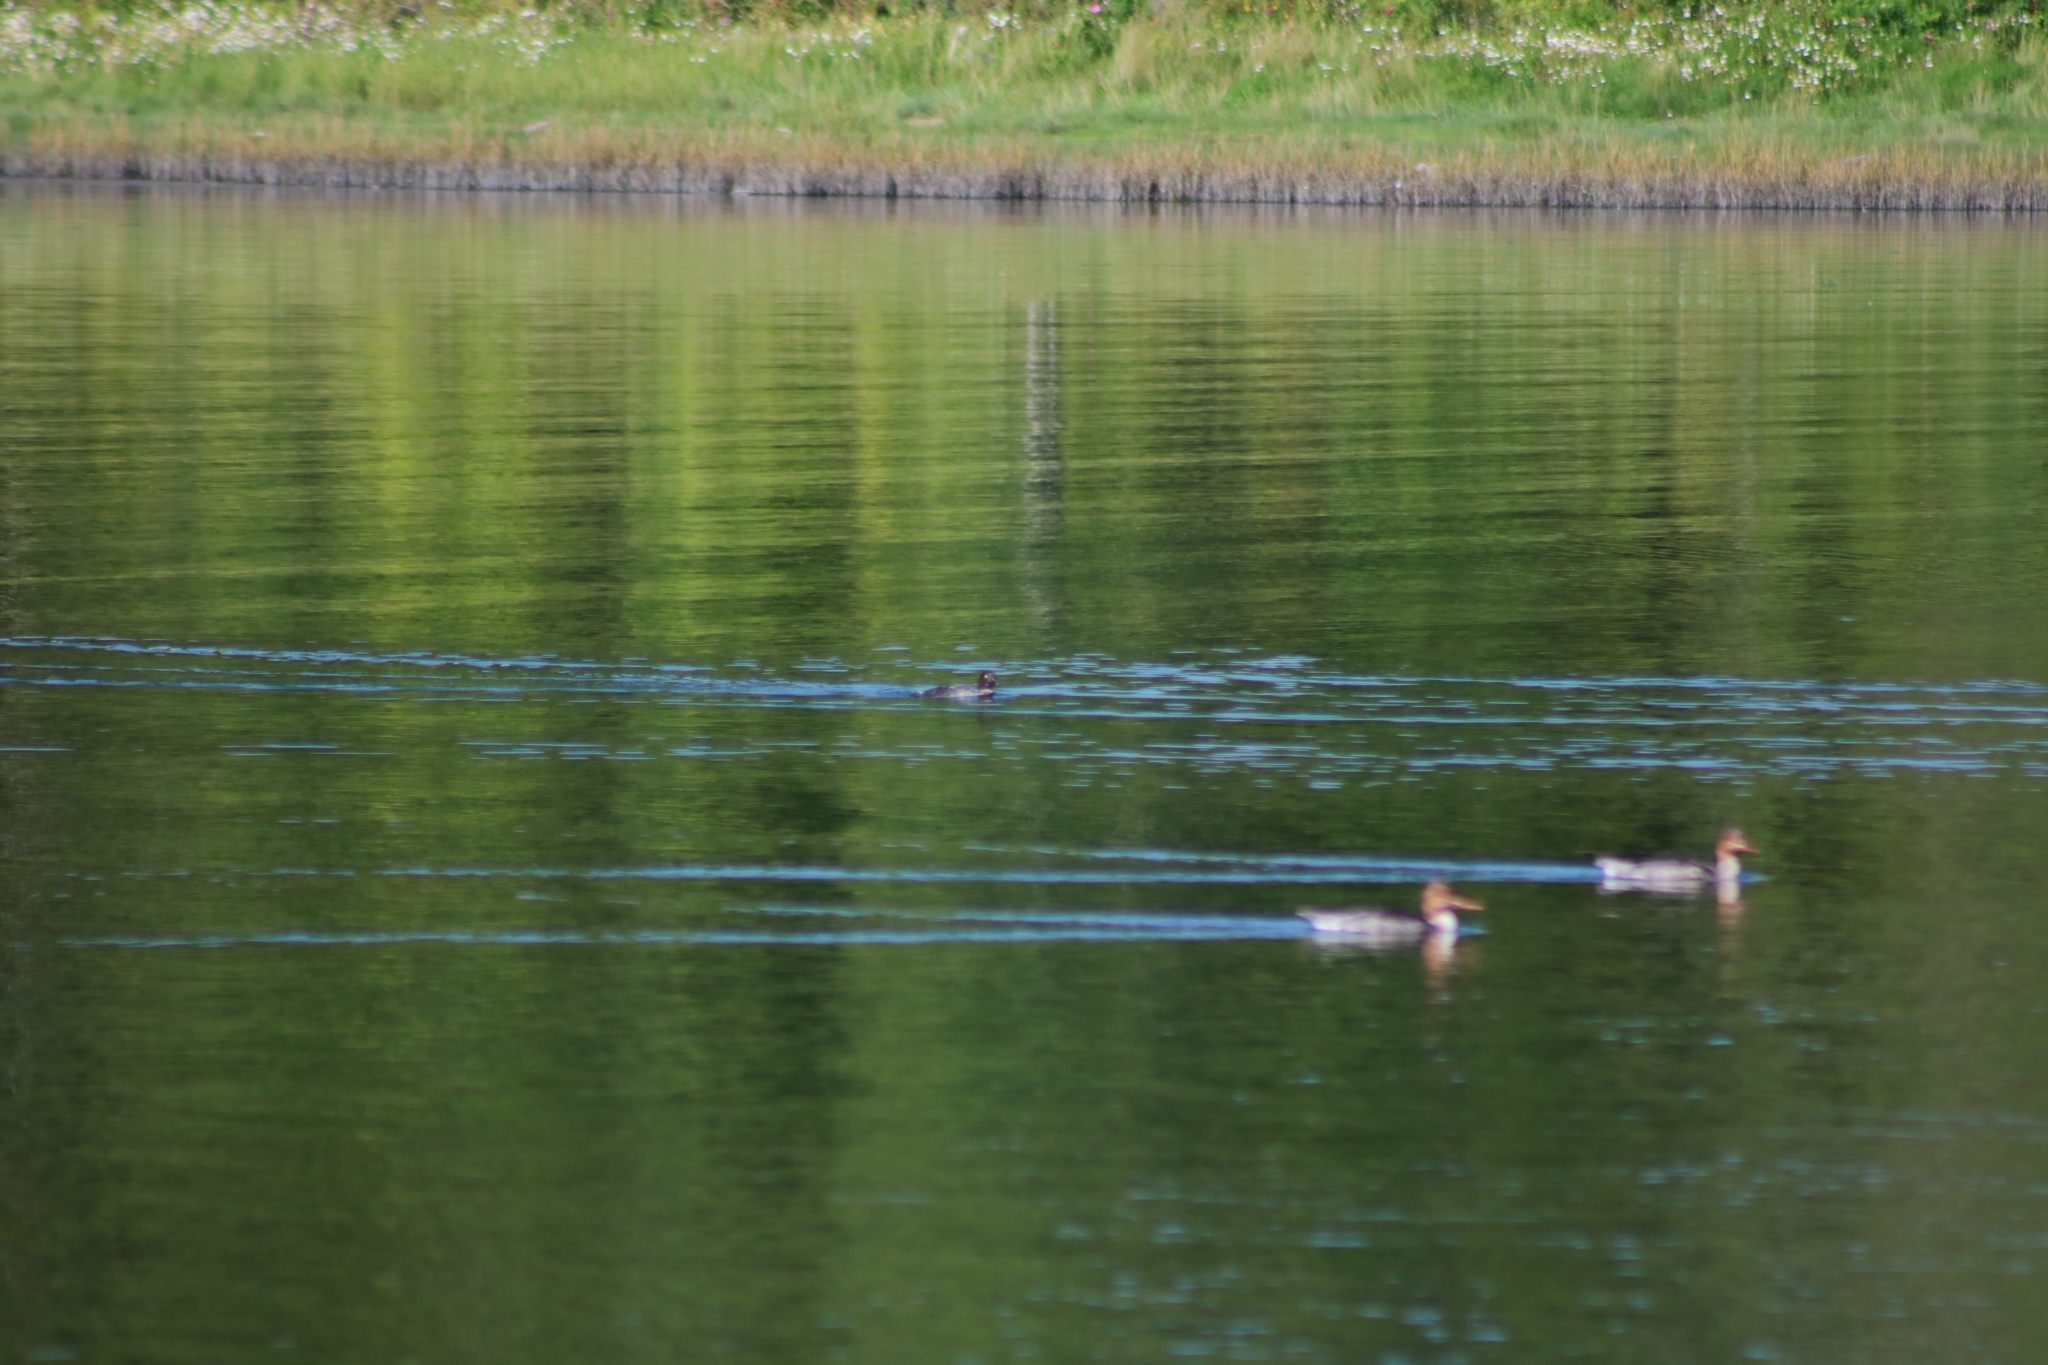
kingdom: Animalia
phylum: Chordata
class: Aves
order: Anseriformes
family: Anatidae
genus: Bucephala
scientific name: Bucephala clangula
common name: Common goldeneye
